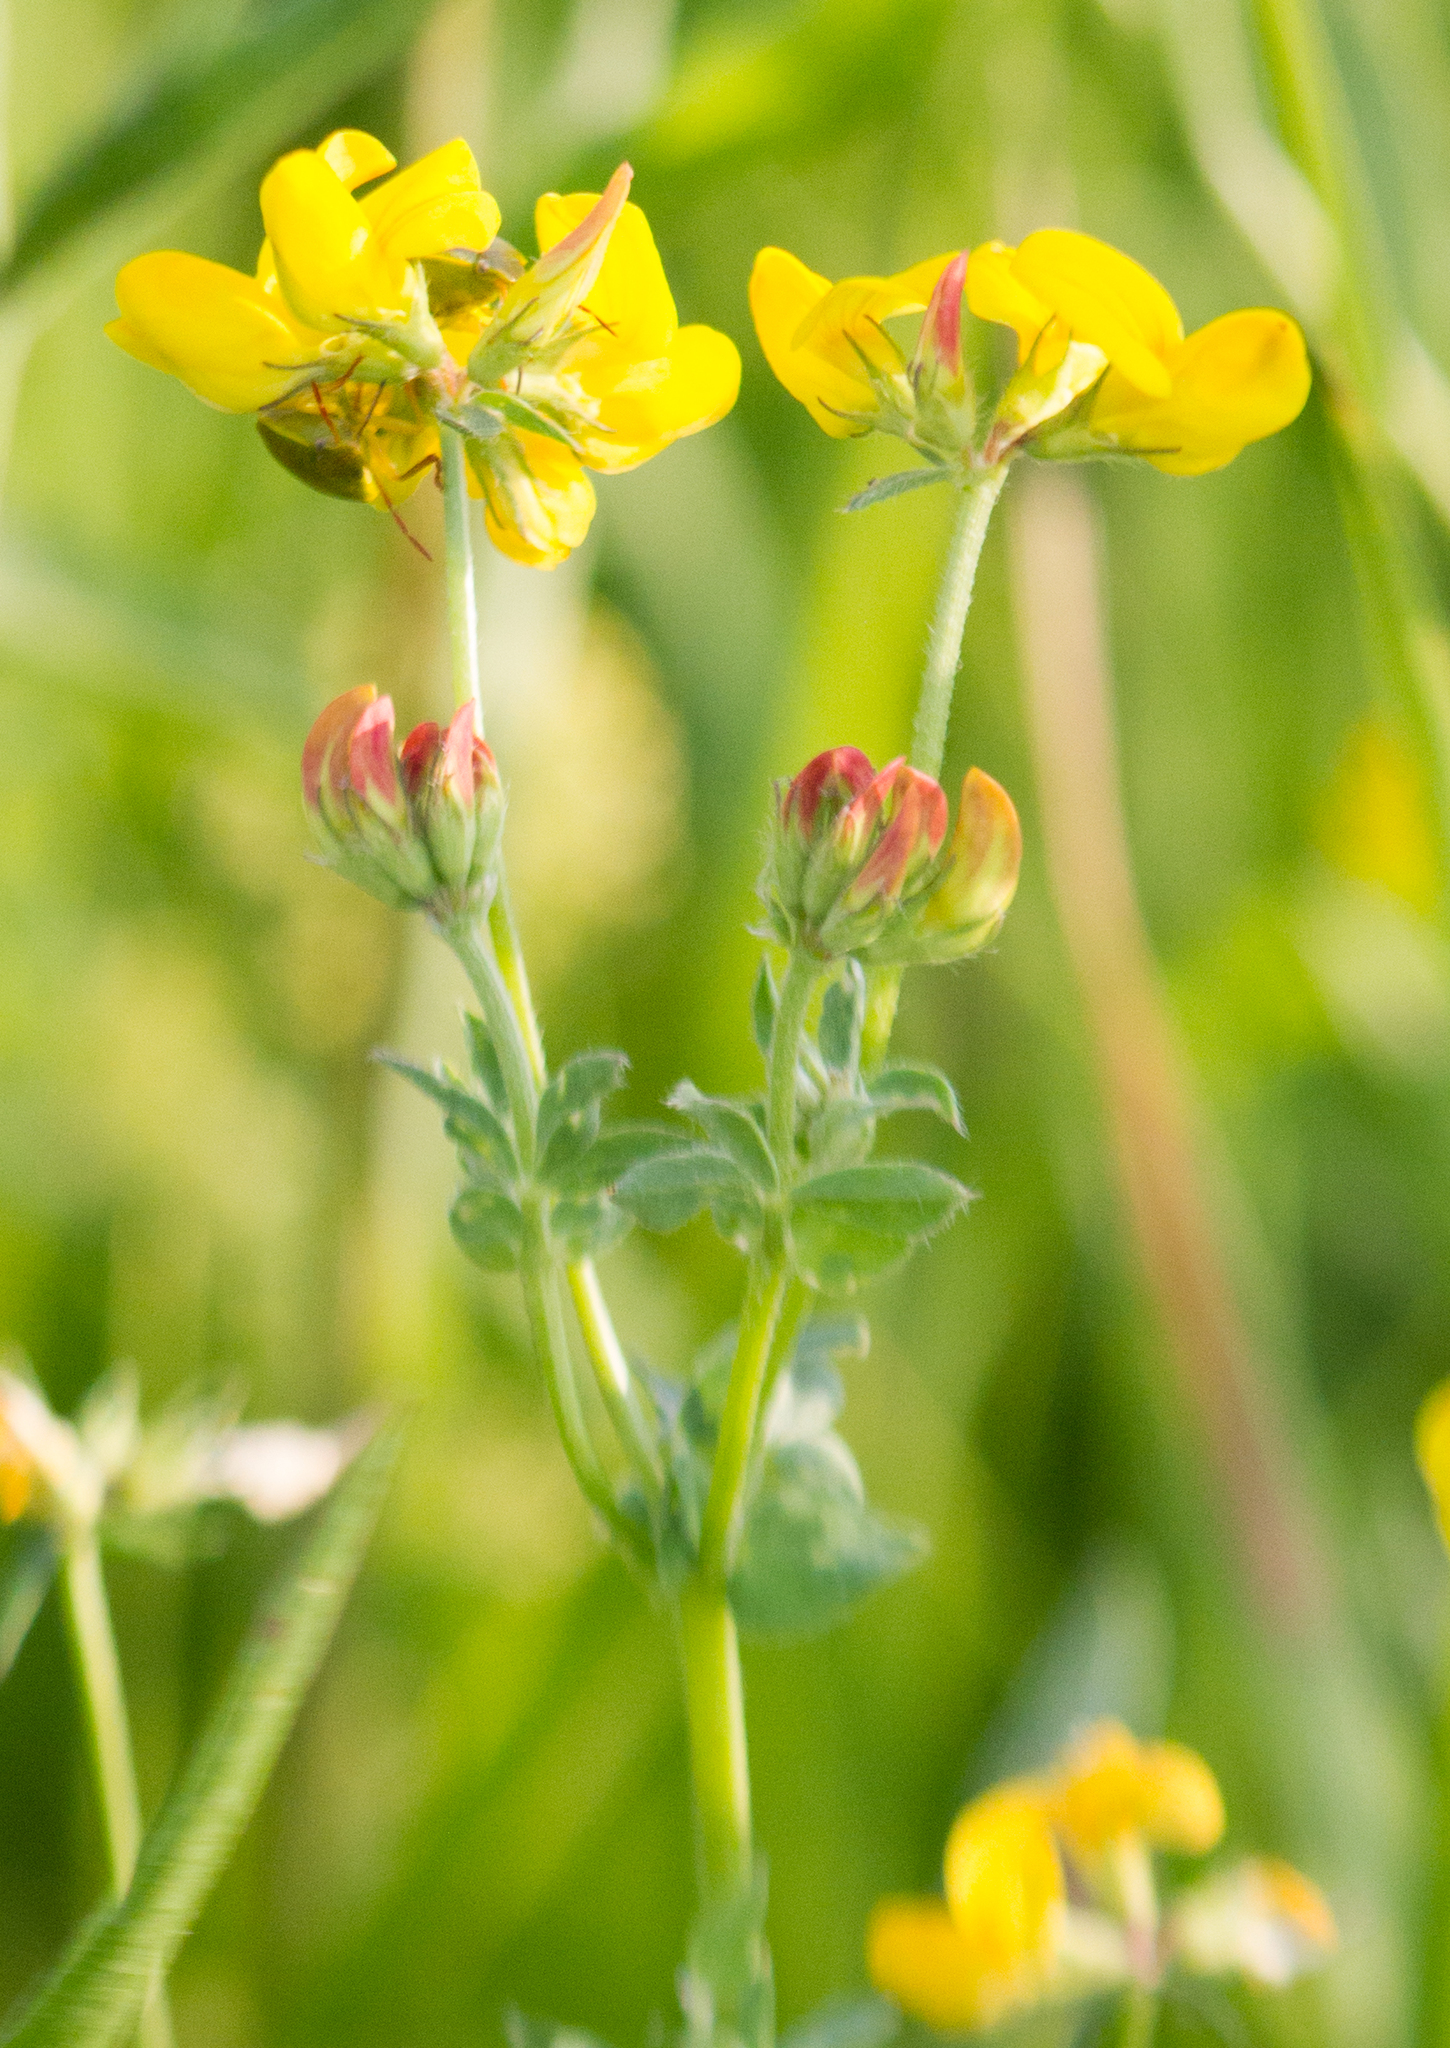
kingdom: Plantae
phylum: Tracheophyta
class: Magnoliopsida
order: Fabales
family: Fabaceae
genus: Lotus
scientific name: Lotus corniculatus
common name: Common bird's-foot-trefoil
